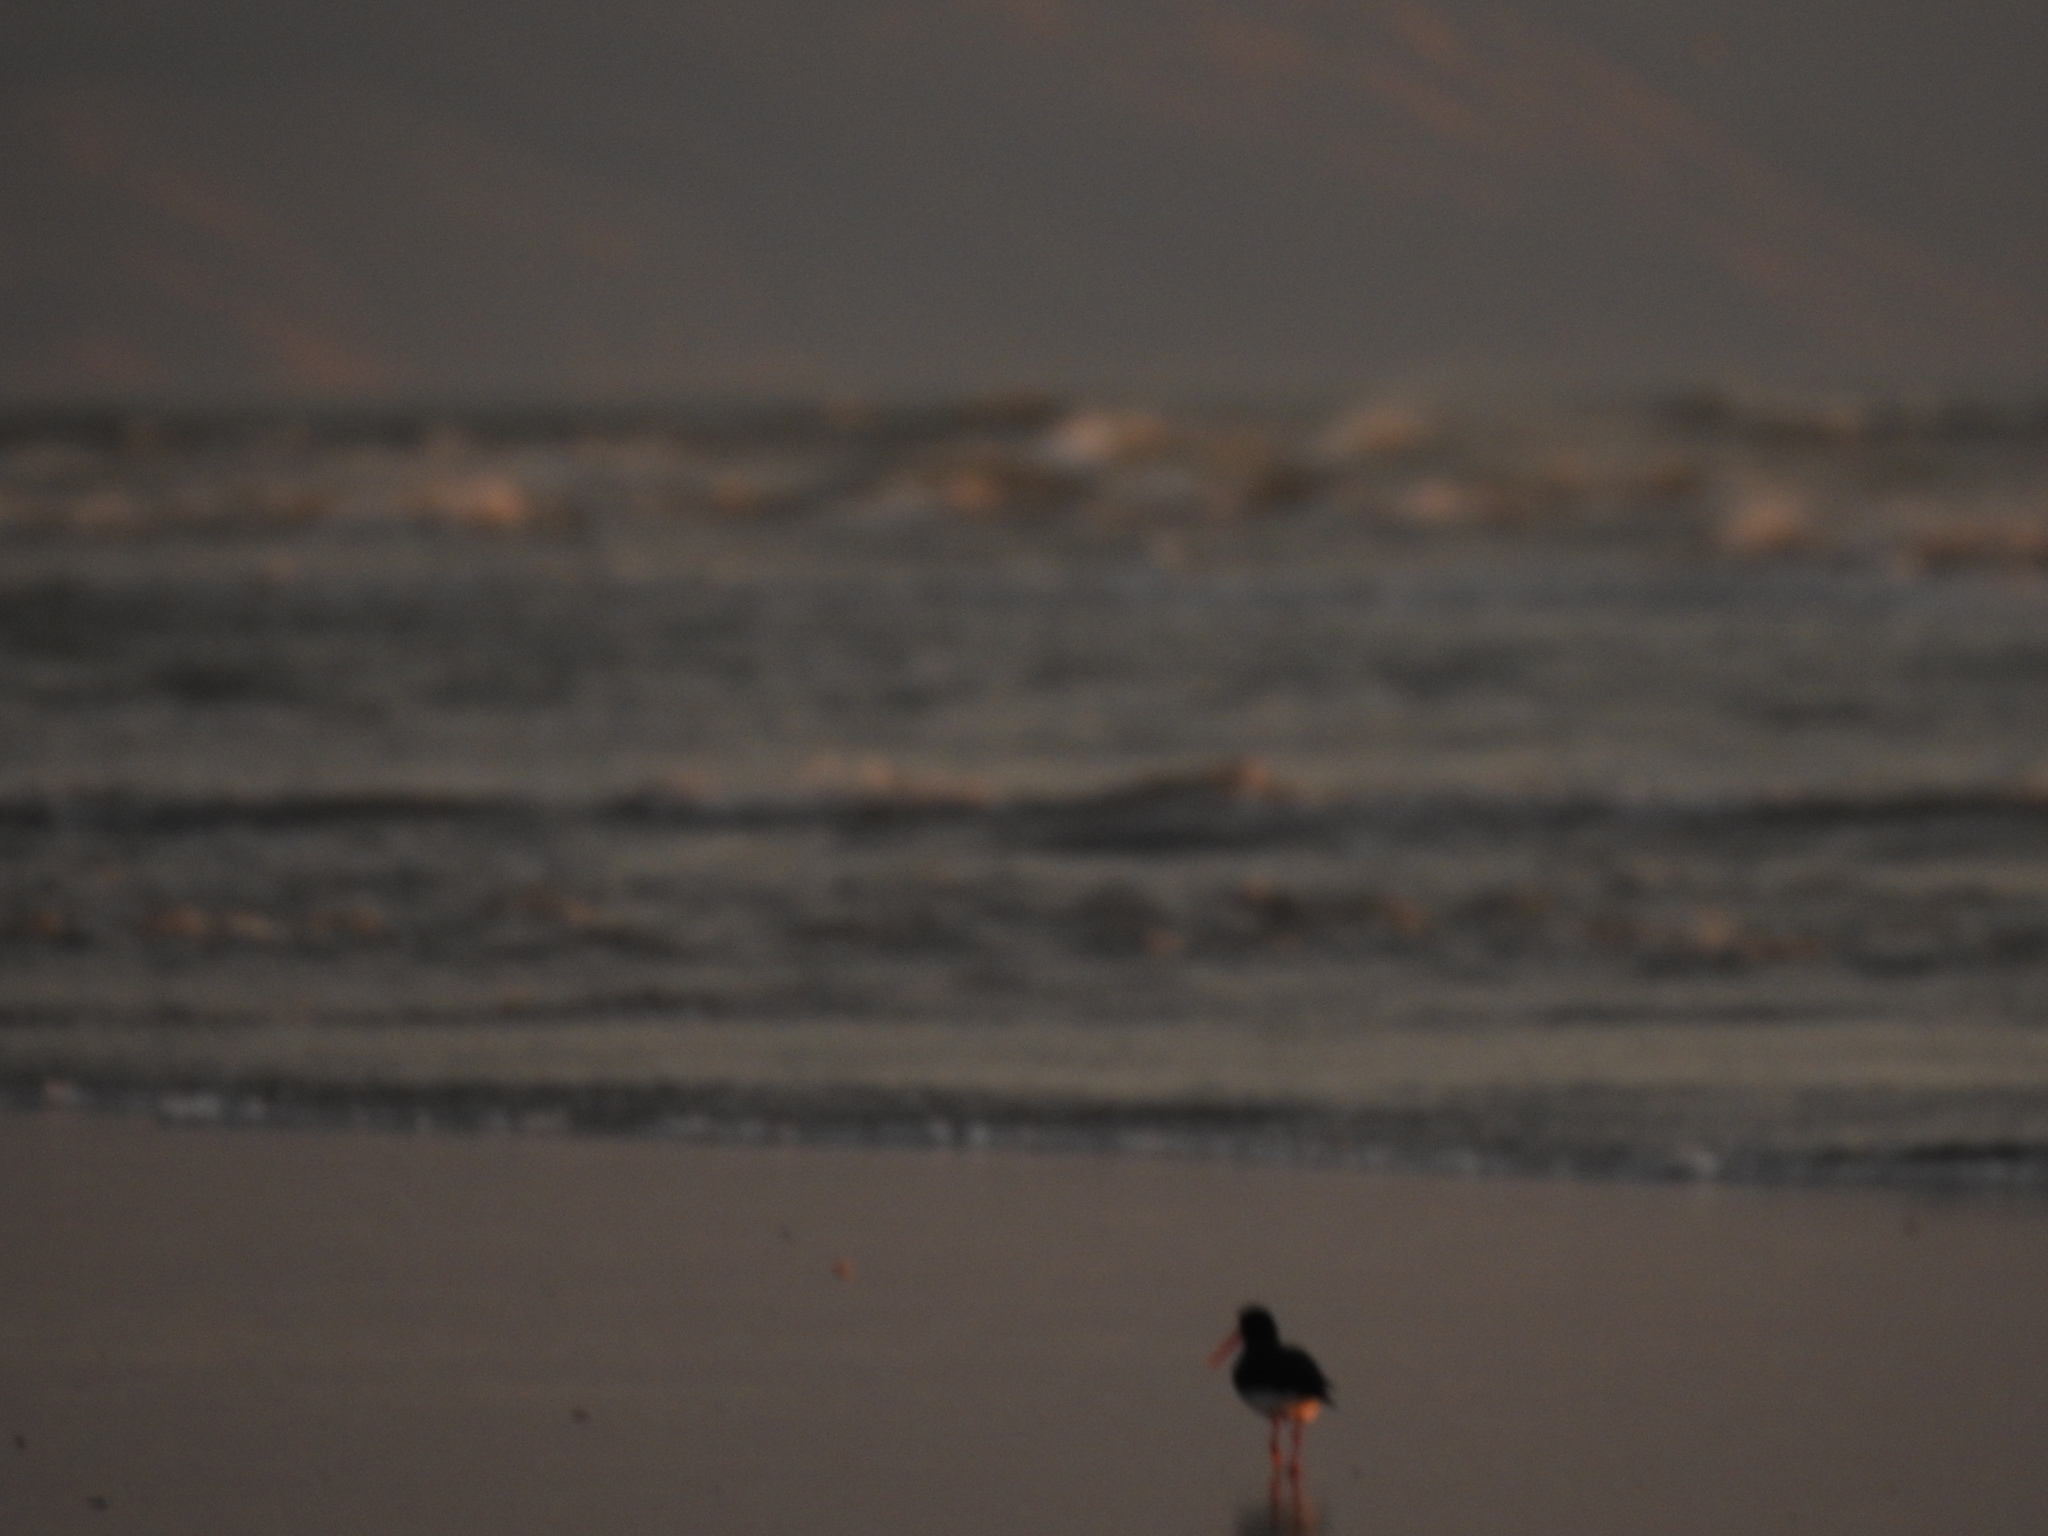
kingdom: Animalia
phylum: Chordata
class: Aves
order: Charadriiformes
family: Haematopodidae
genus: Haematopus
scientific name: Haematopus finschi
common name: South island oystercatcher
